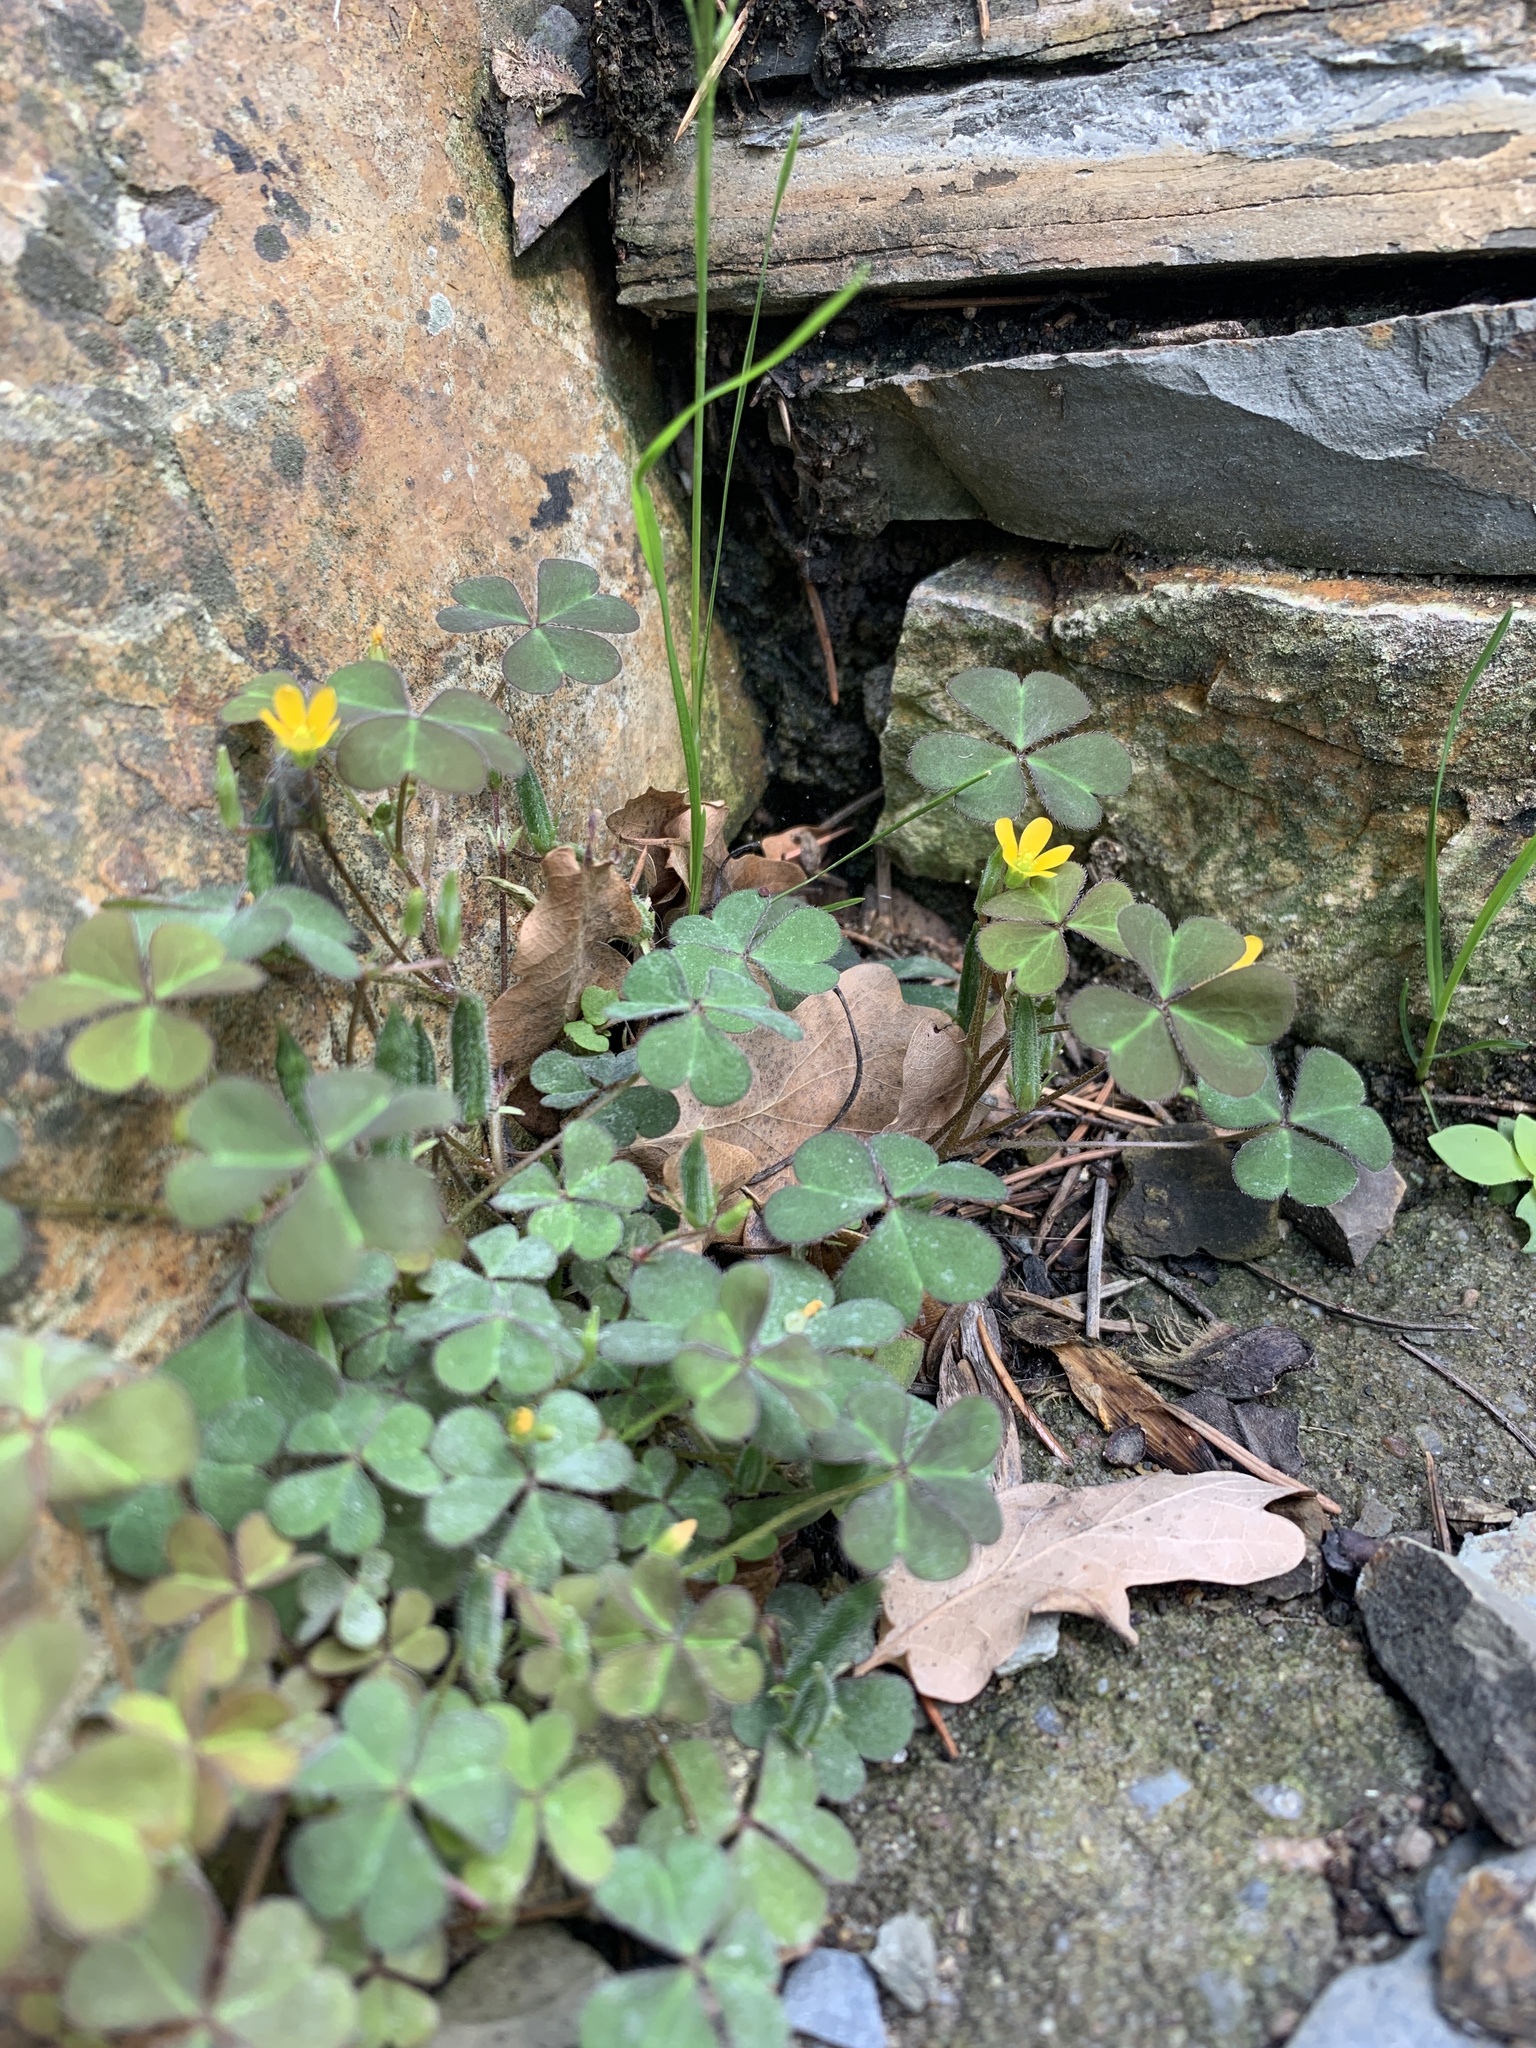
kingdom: Plantae
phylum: Tracheophyta
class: Magnoliopsida
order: Oxalidales
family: Oxalidaceae
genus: Oxalis
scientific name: Oxalis corniculata
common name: Procumbent yellow-sorrel
